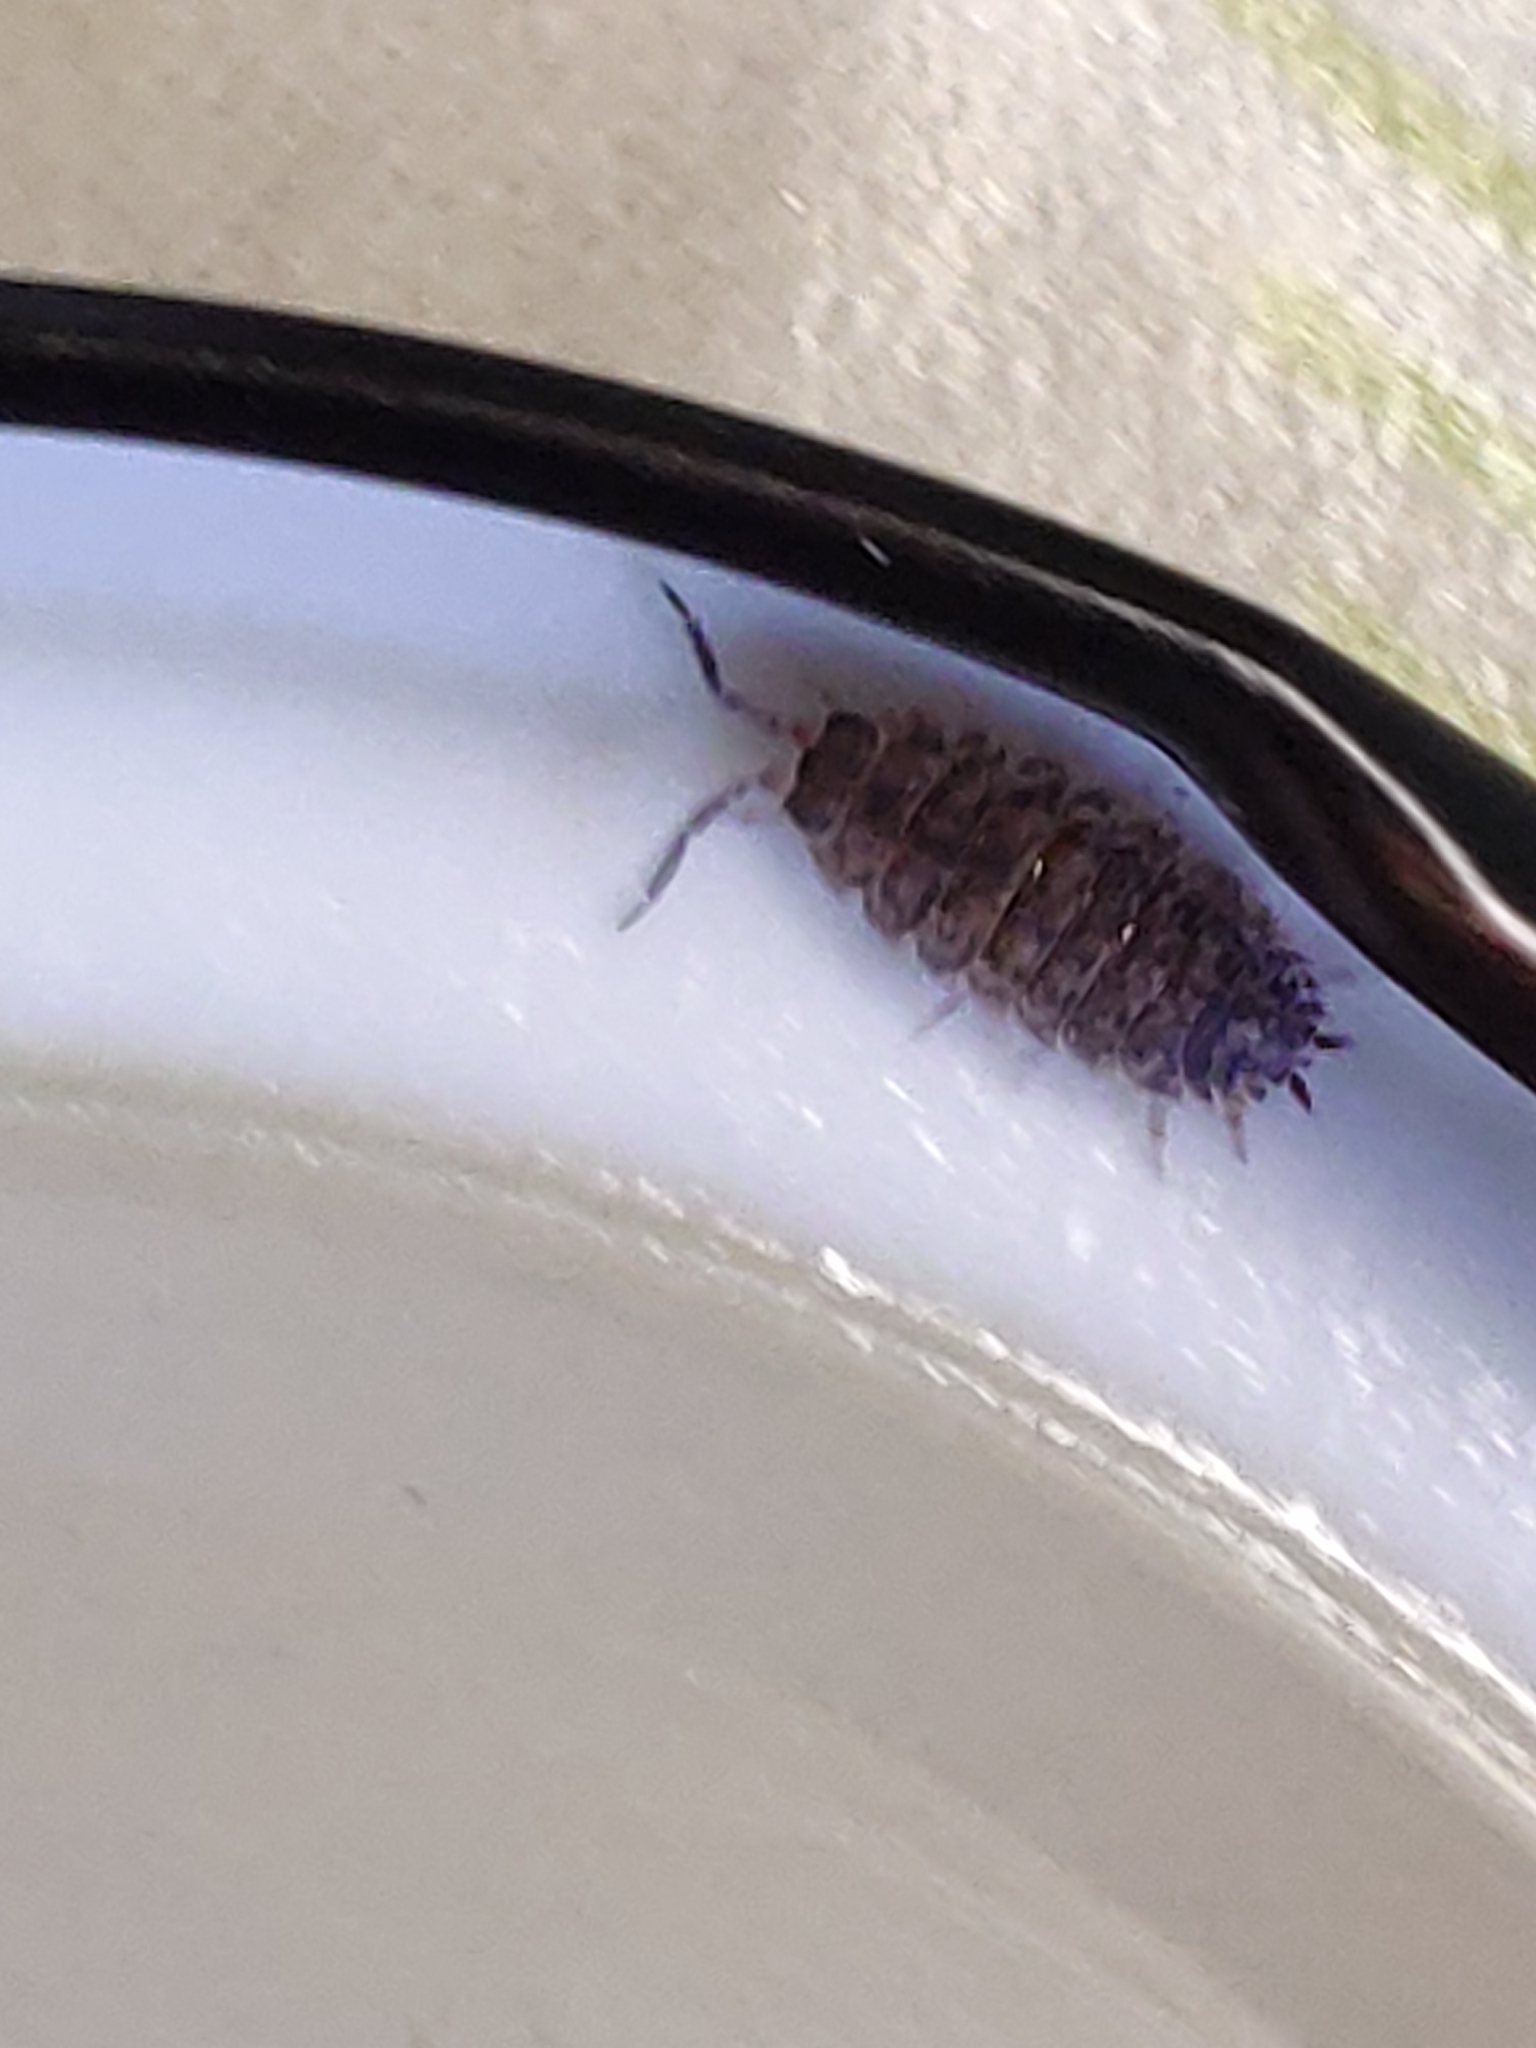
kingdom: Animalia
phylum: Arthropoda
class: Malacostraca
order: Isopoda
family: Porcellionidae
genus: Porcellio
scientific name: Porcellio scaber
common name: Common rough woodlouse
